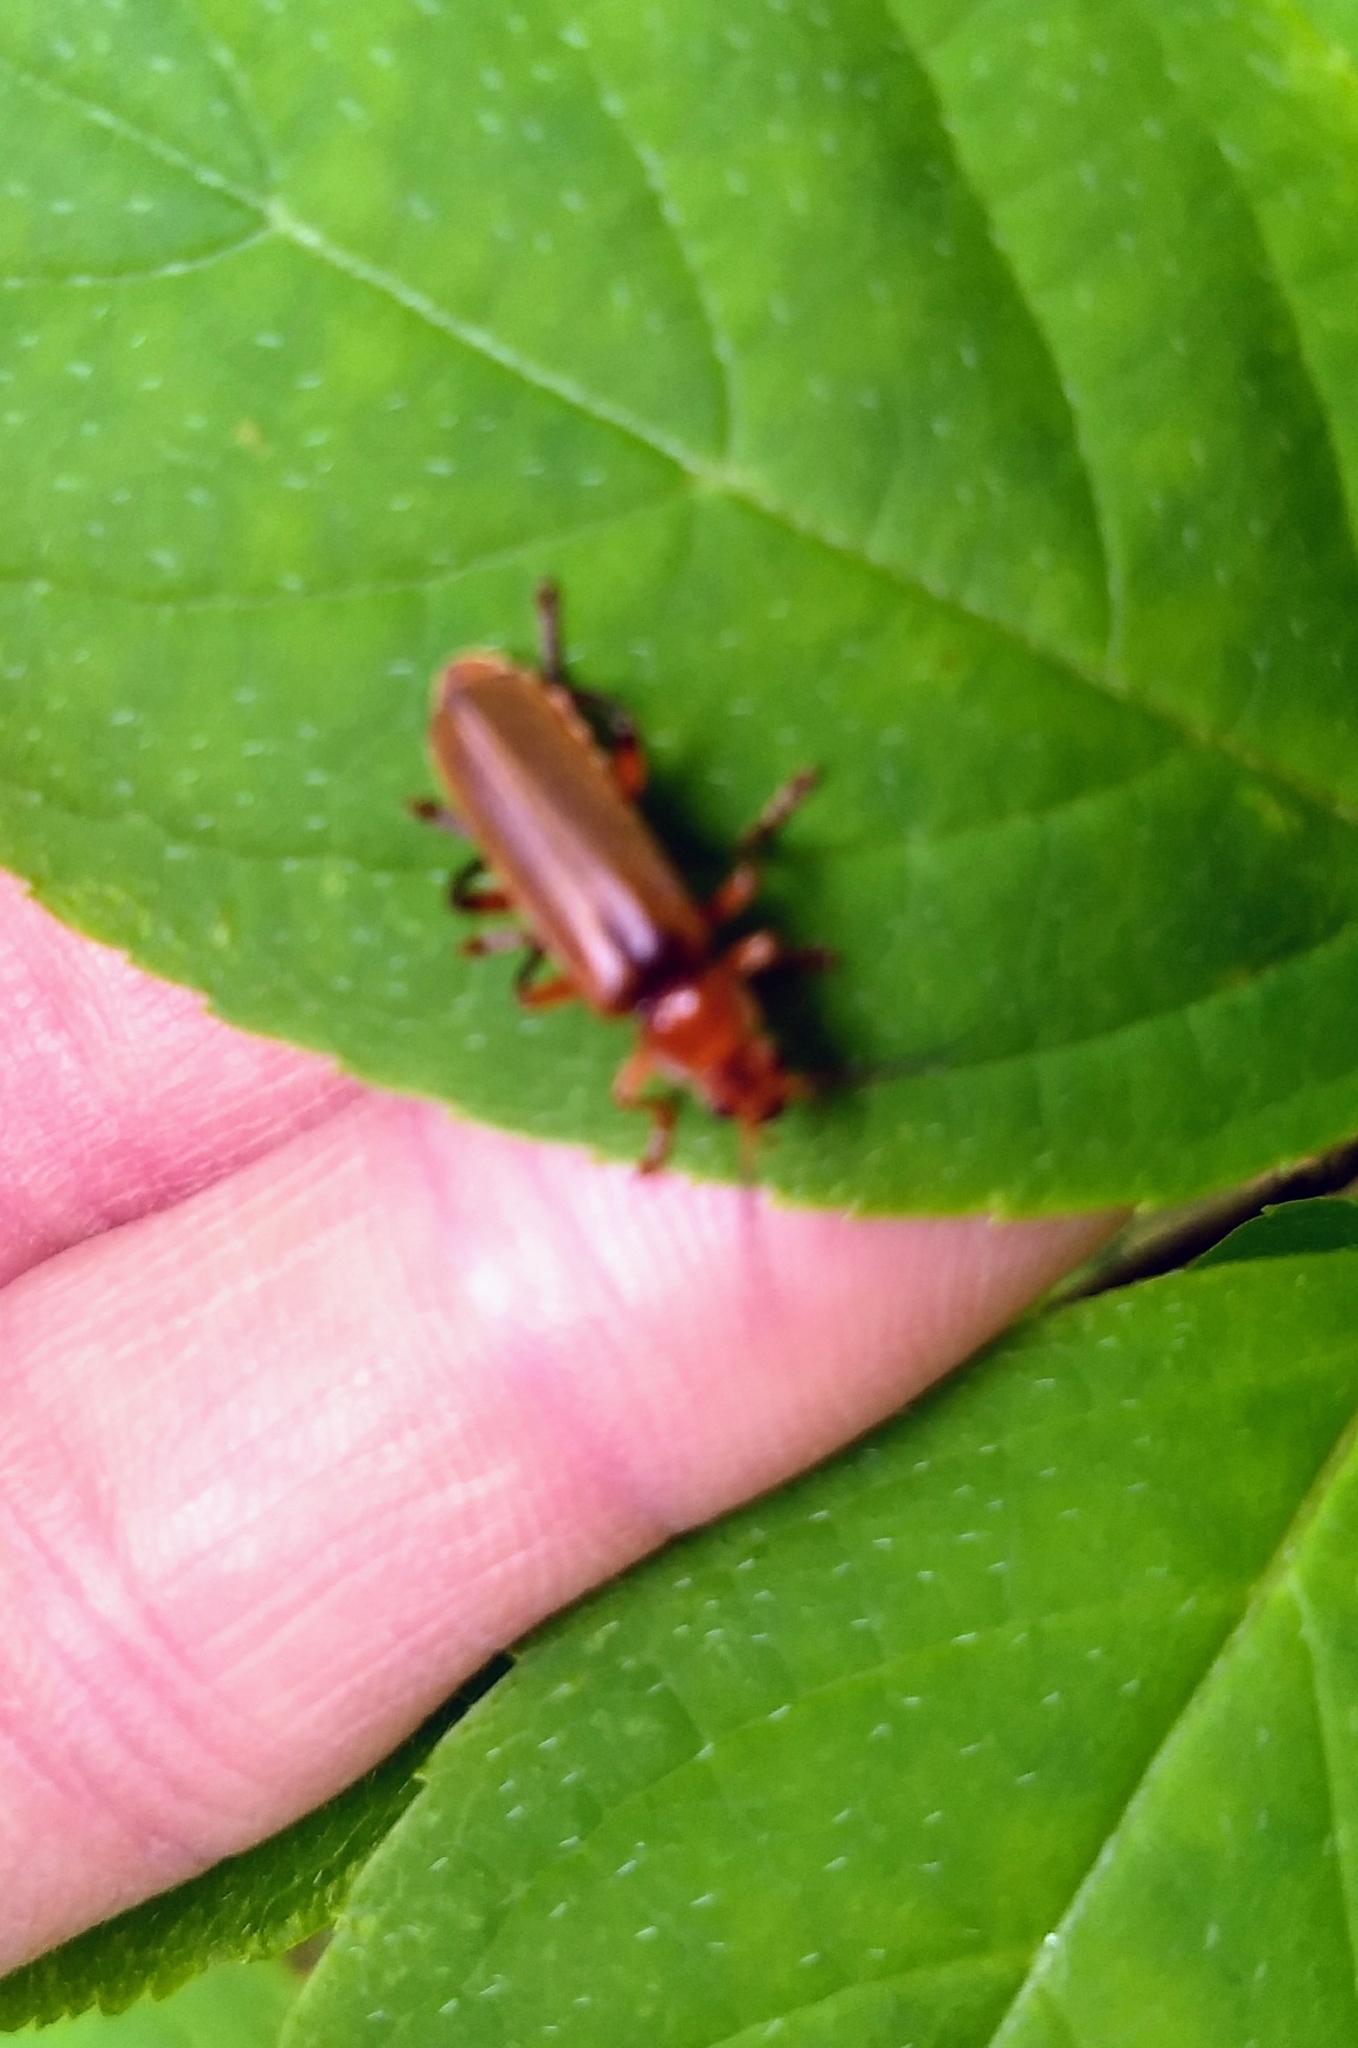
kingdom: Animalia
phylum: Arthropoda
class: Insecta
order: Coleoptera
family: Cantharidae
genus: Cantharis
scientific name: Cantharis livida
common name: Livid soldier beetle
